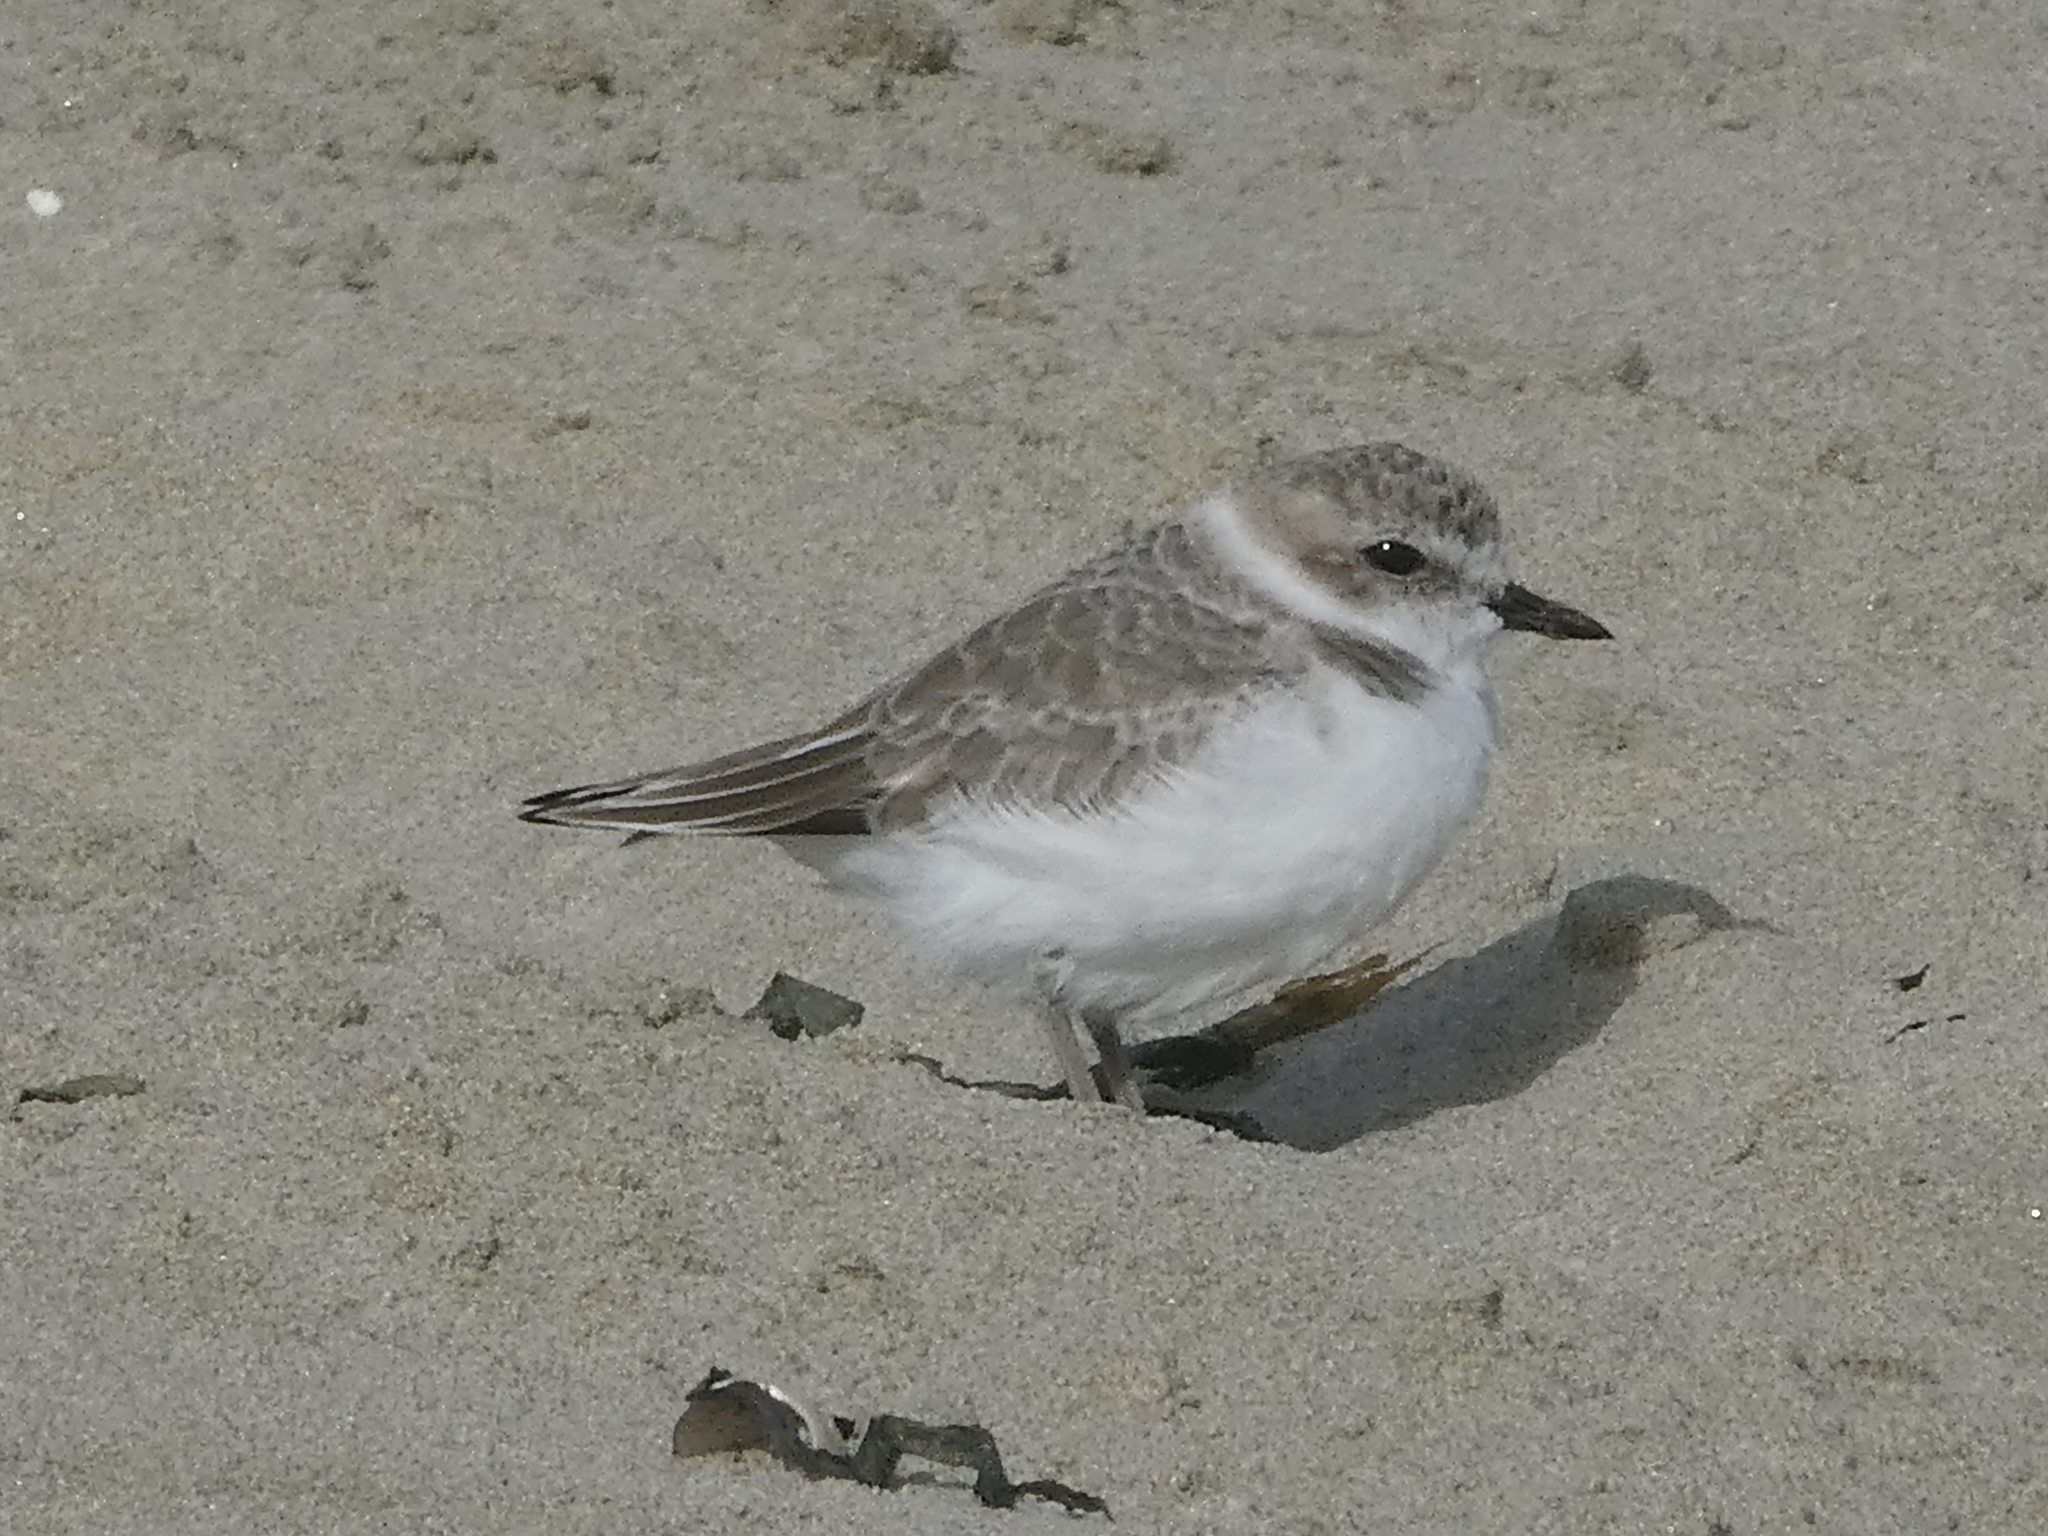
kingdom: Animalia
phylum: Chordata
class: Aves
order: Charadriiformes
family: Charadriidae
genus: Anarhynchus
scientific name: Anarhynchus
